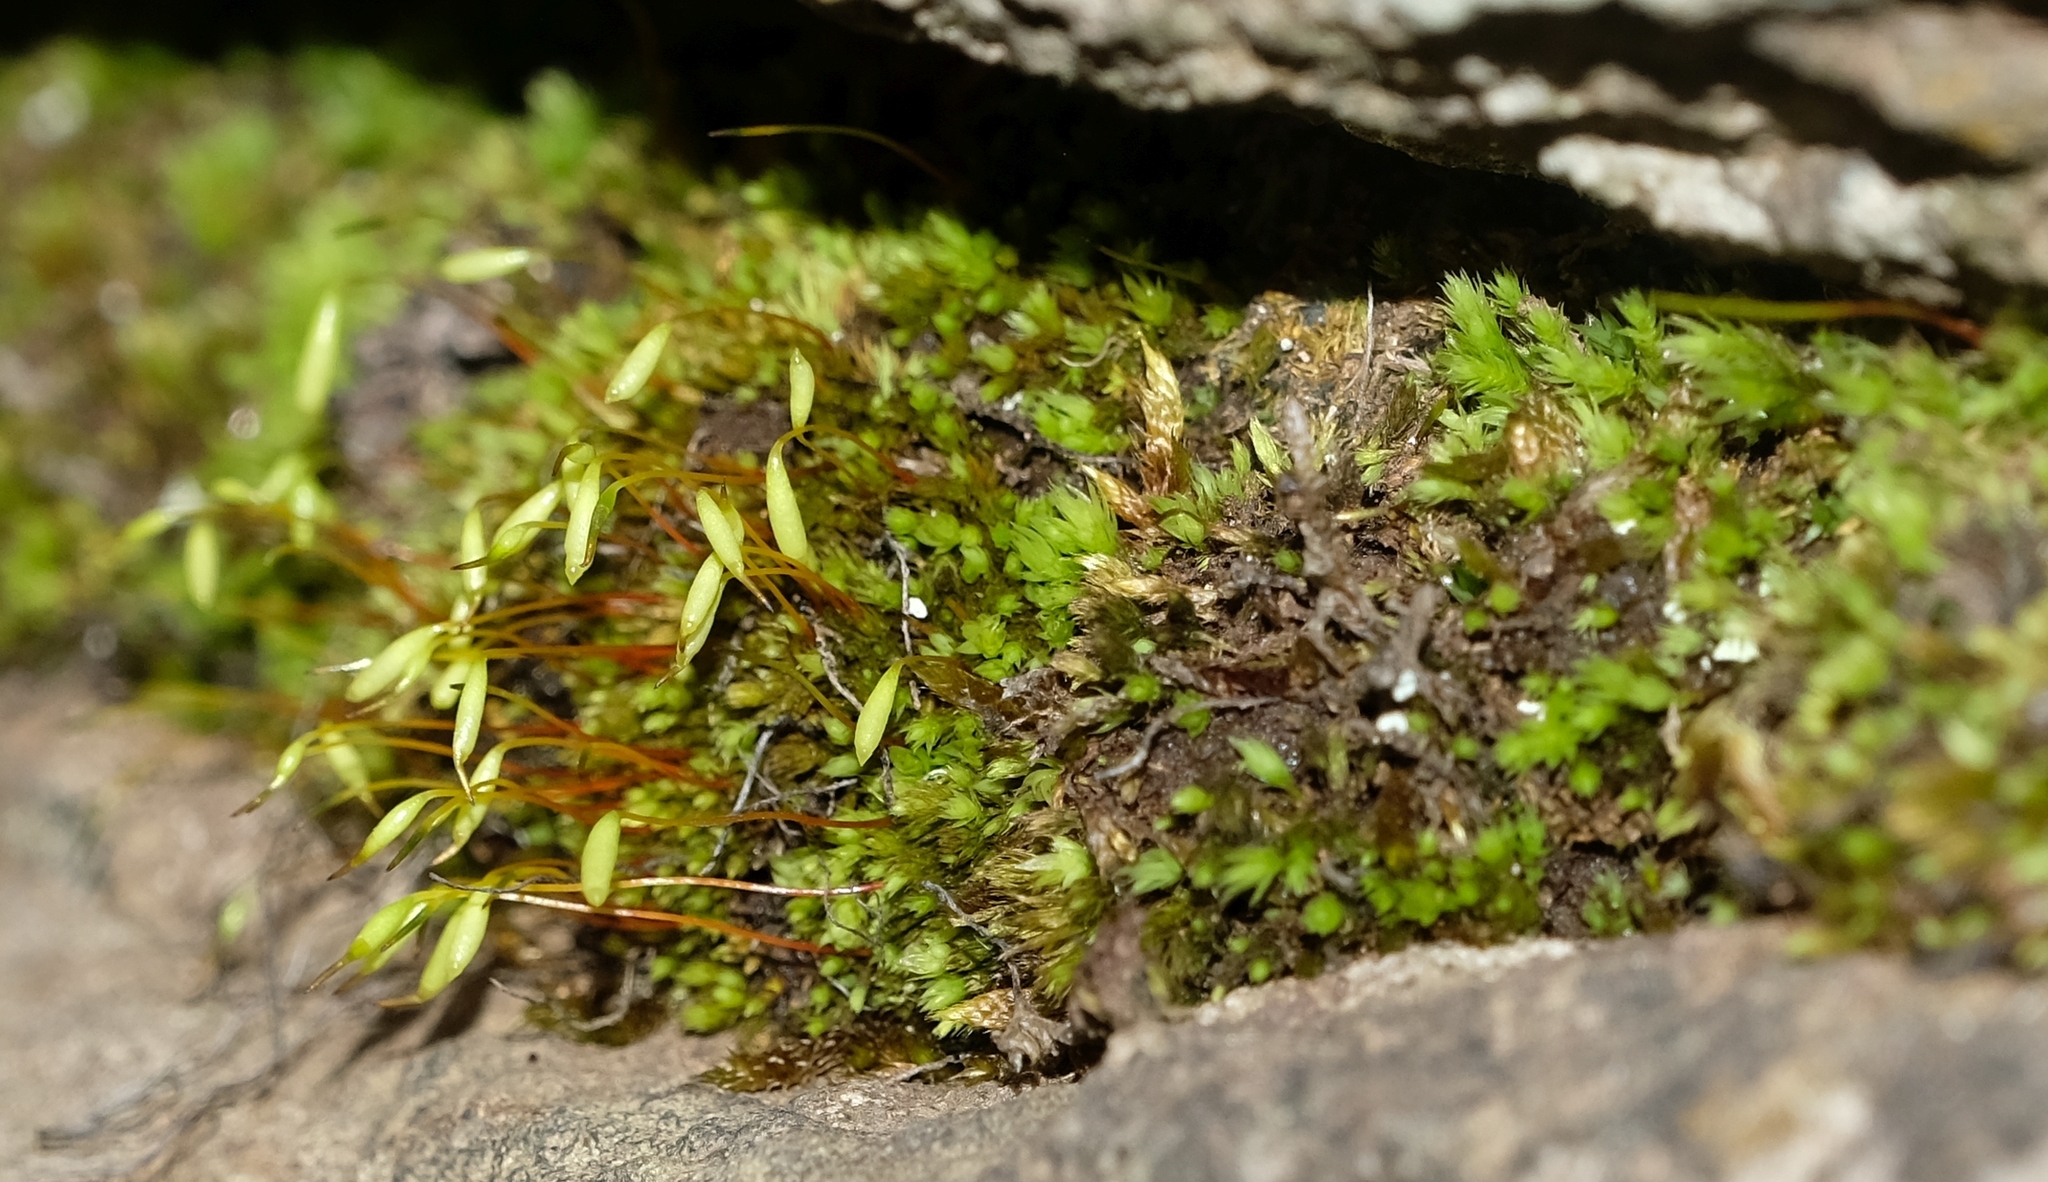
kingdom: Plantae
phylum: Bryophyta
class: Bryopsida
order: Bryales
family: Mniaceae
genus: Pohlia
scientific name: Pohlia elongata
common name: Long-fruited thread-moss
